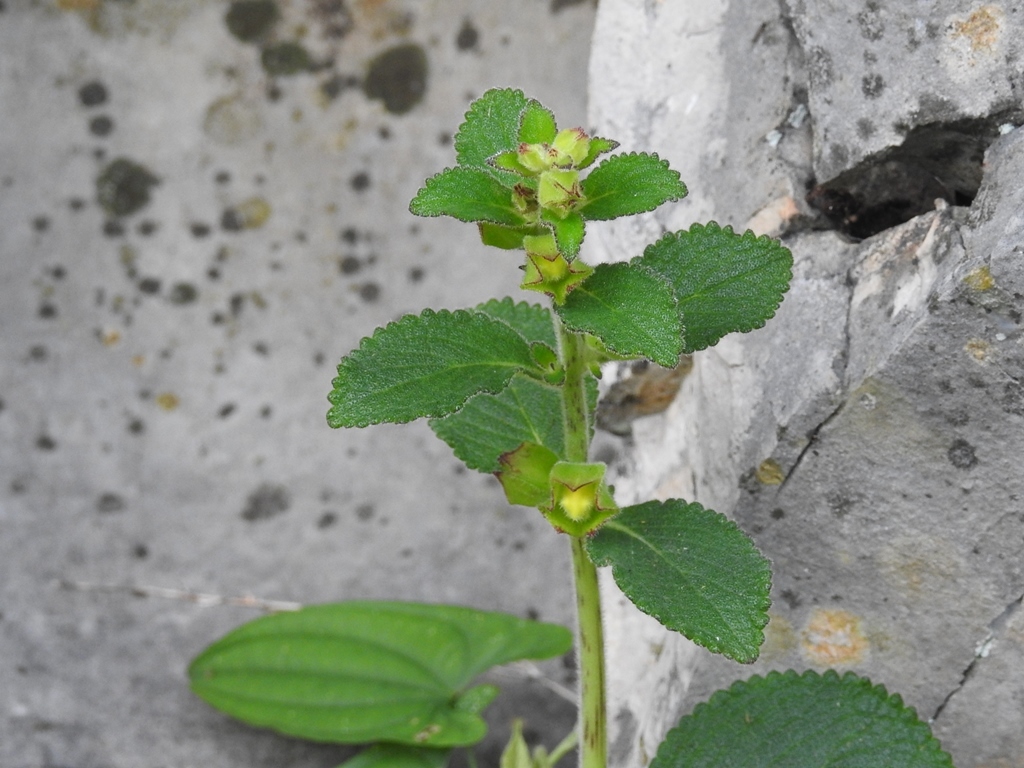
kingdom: Plantae
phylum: Tracheophyta
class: Magnoliopsida
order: Lamiales
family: Gesneriaceae
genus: Sinningia
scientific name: Sinningia incarnata
